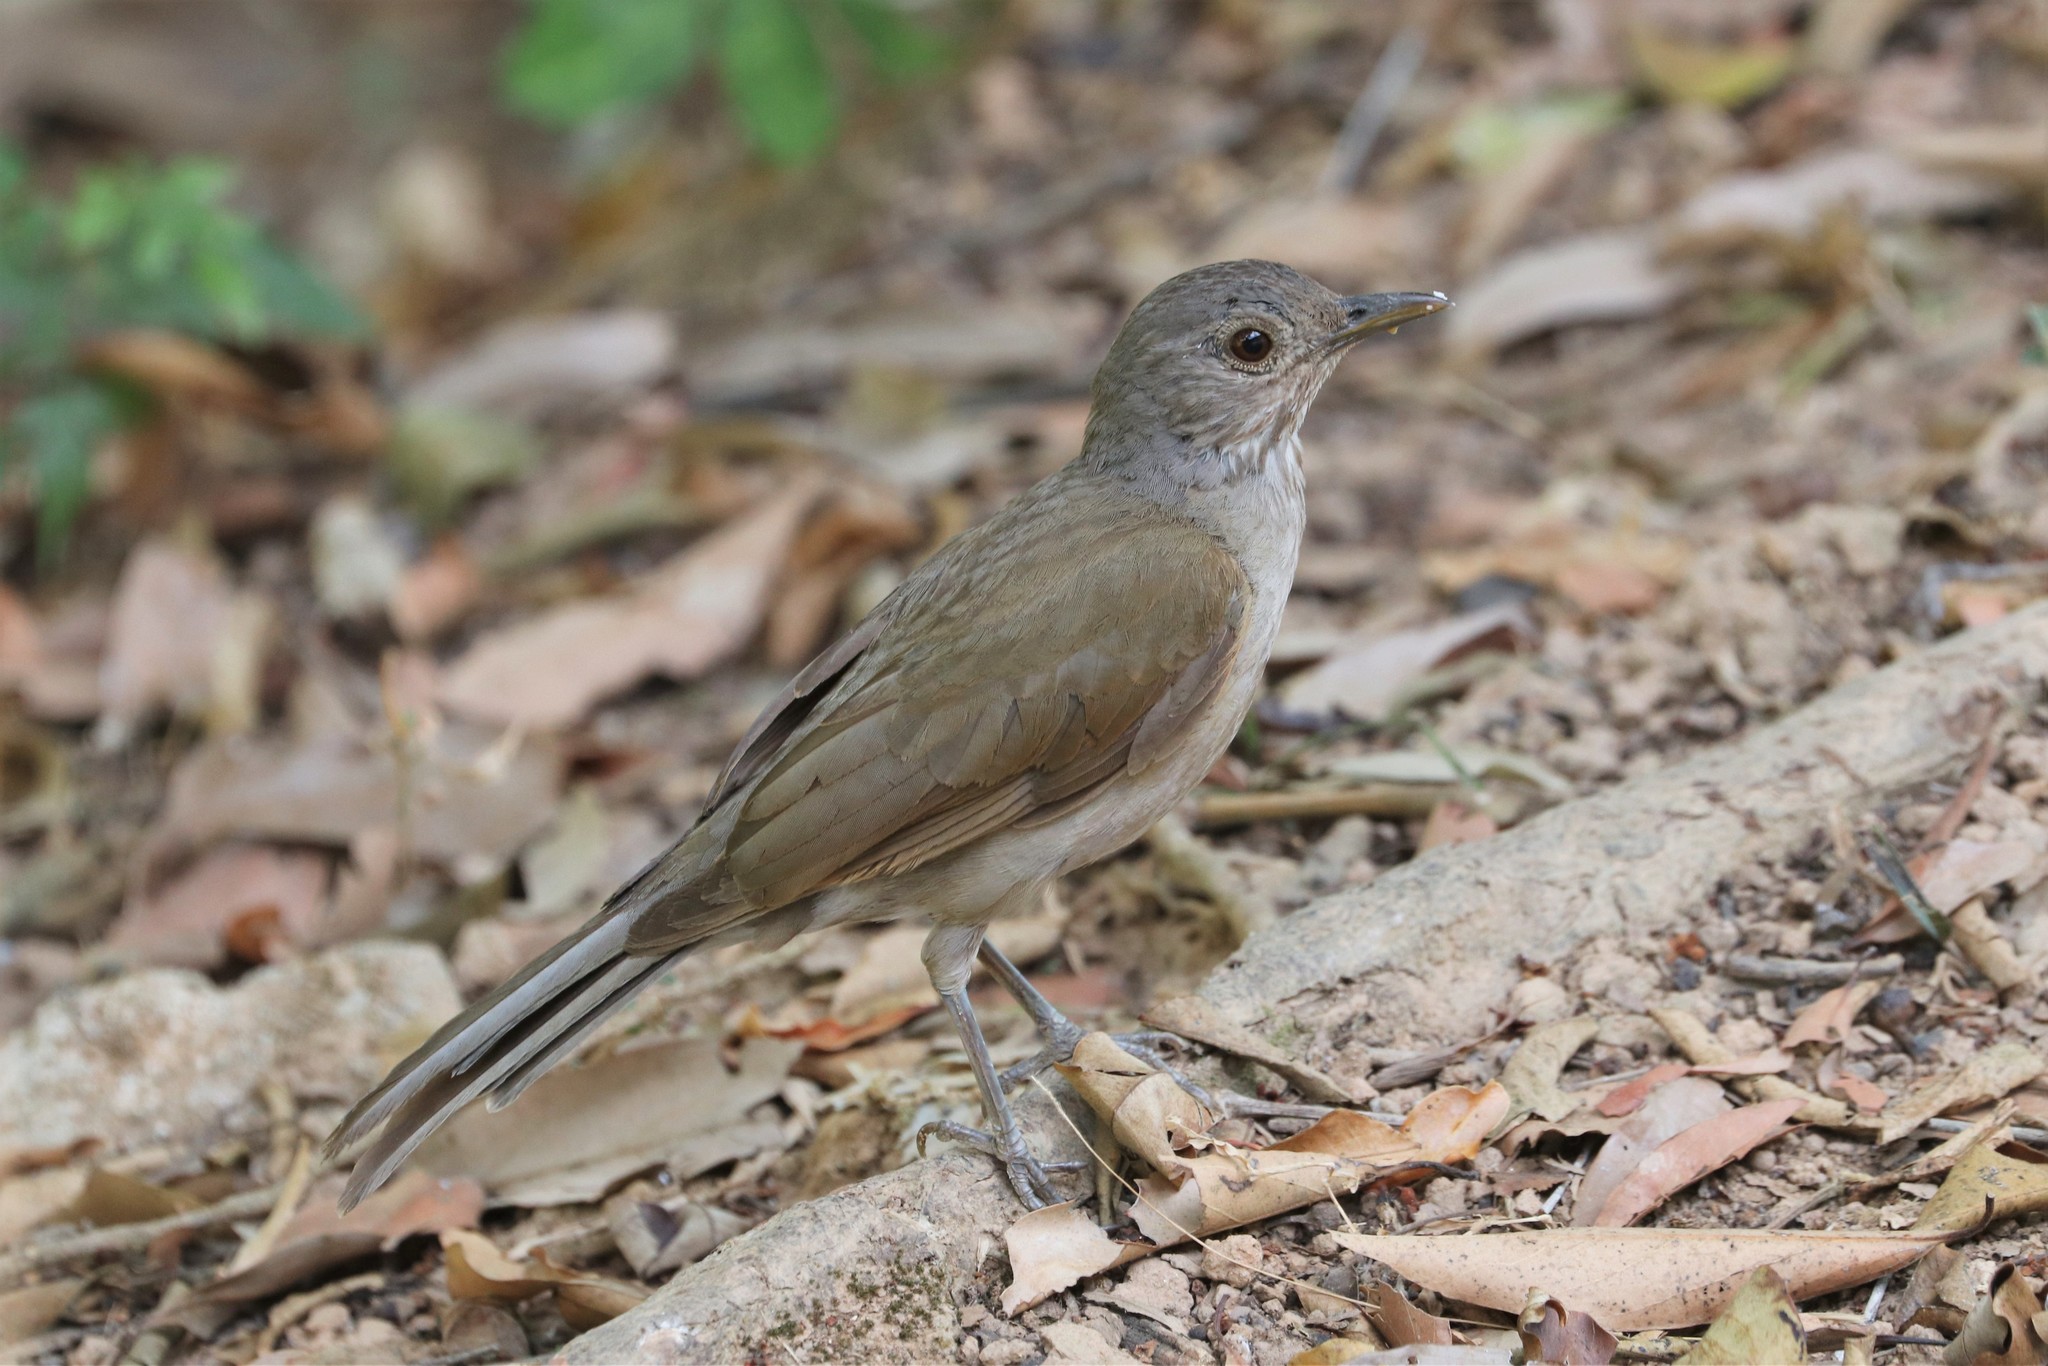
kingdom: Animalia
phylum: Chordata
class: Aves
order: Passeriformes
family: Turdidae
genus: Turdus
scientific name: Turdus leucomelas
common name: Pale-breasted thrush
